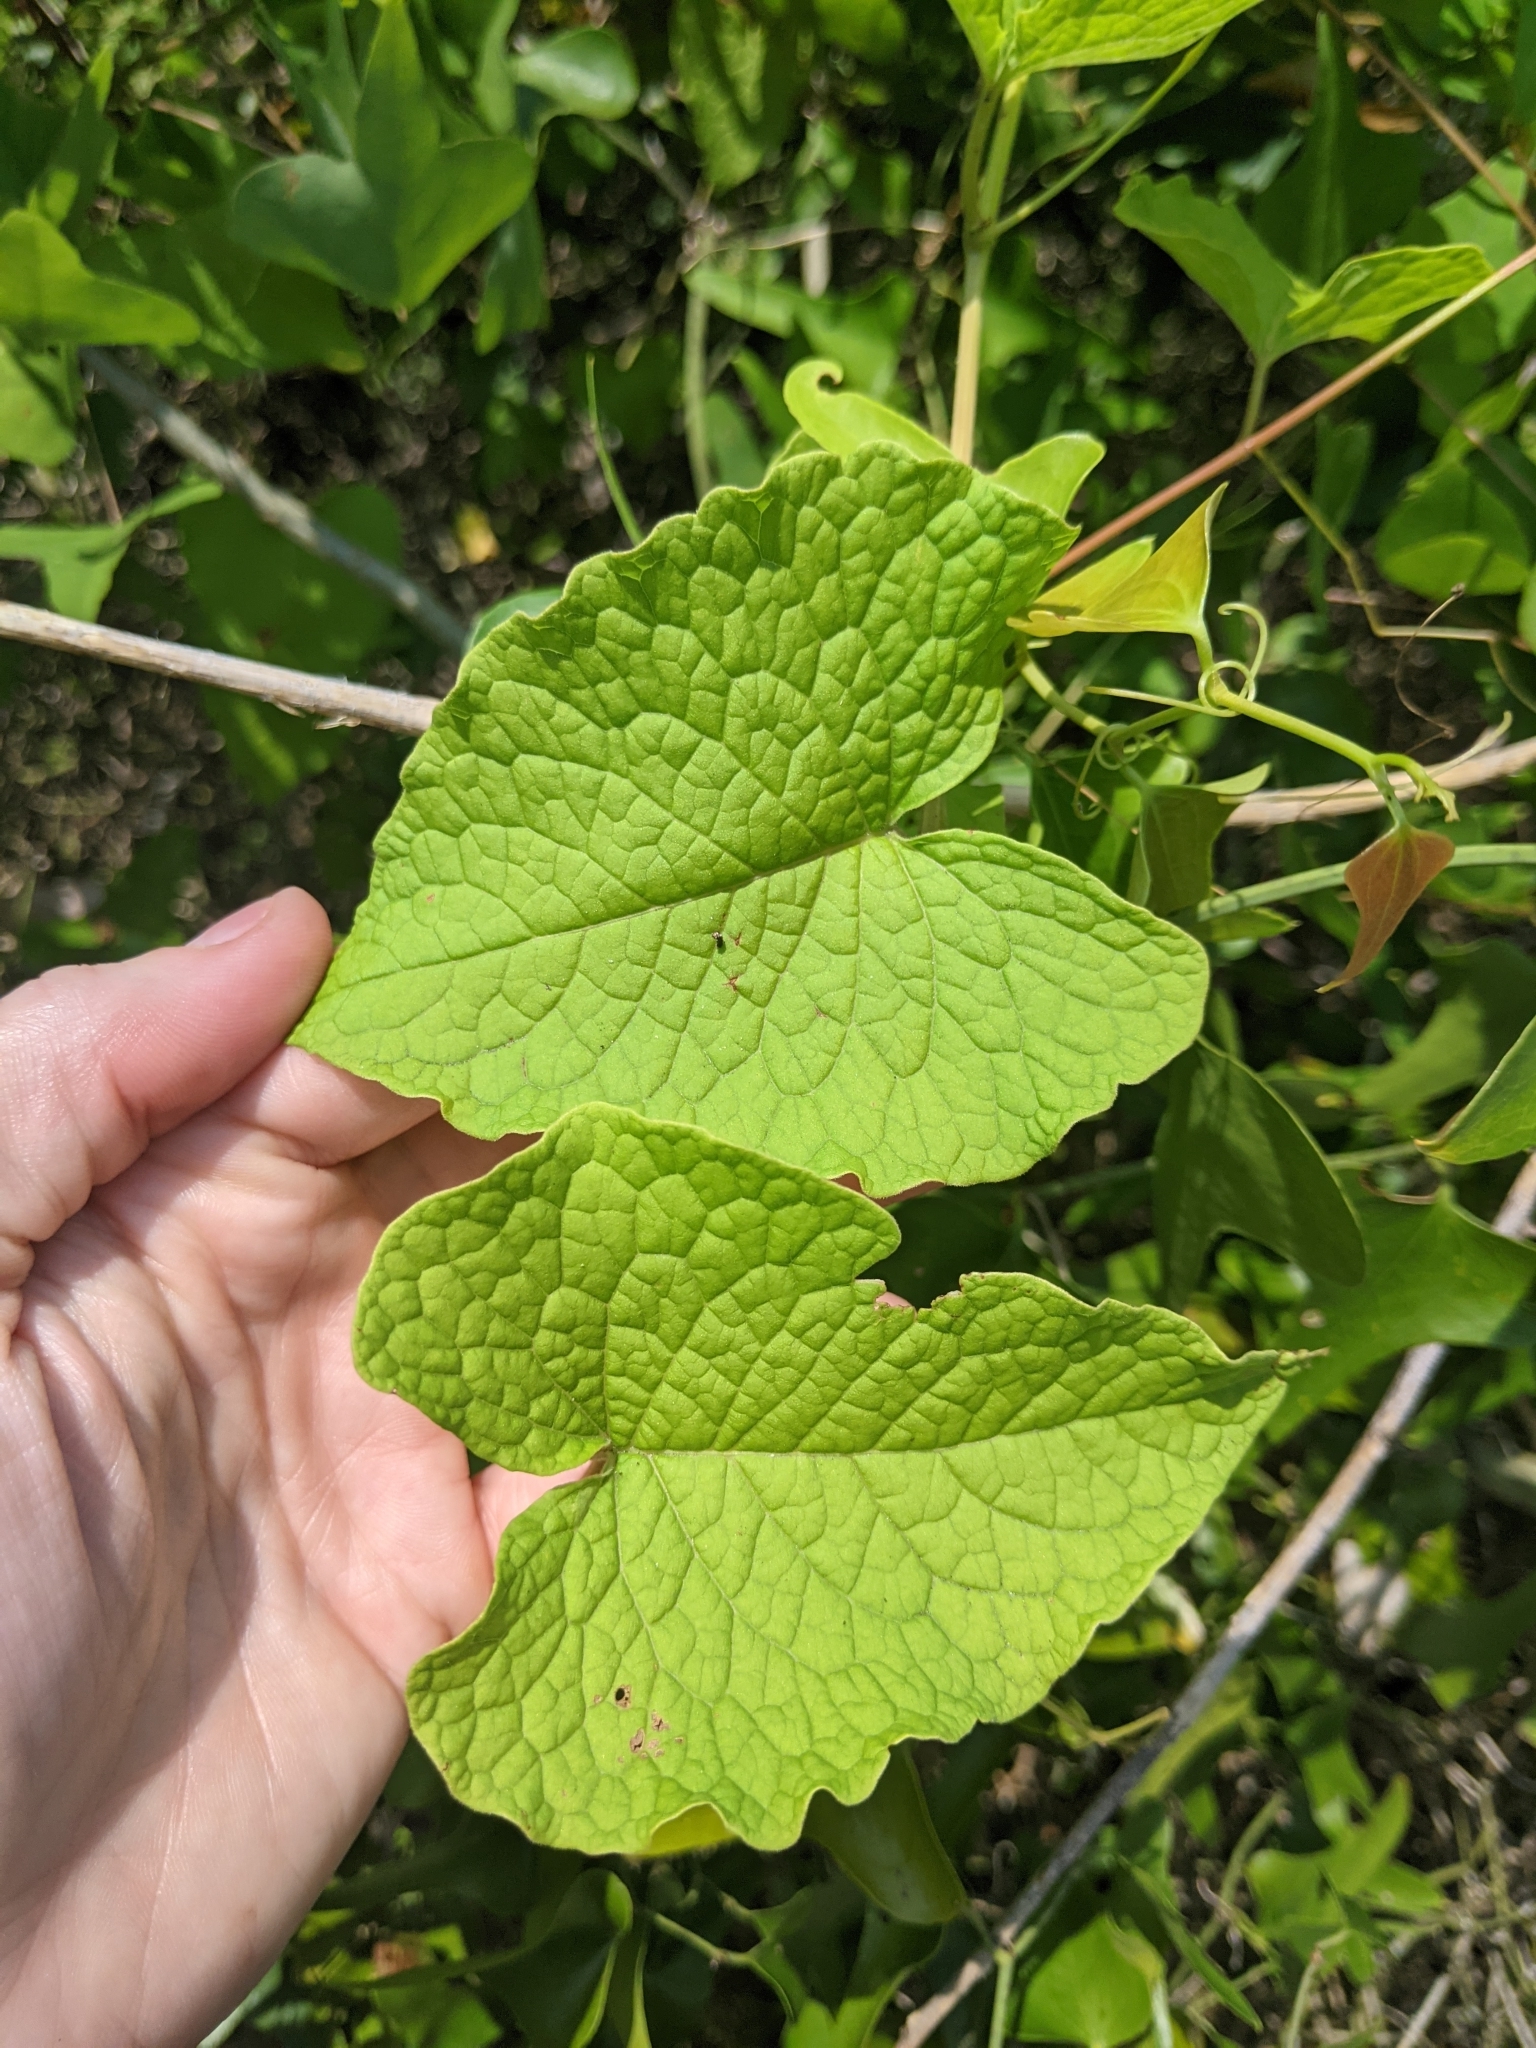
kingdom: Plantae
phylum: Tracheophyta
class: Magnoliopsida
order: Caryophyllales
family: Polygonaceae
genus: Antigonon
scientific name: Antigonon leptopus
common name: Coral vine
